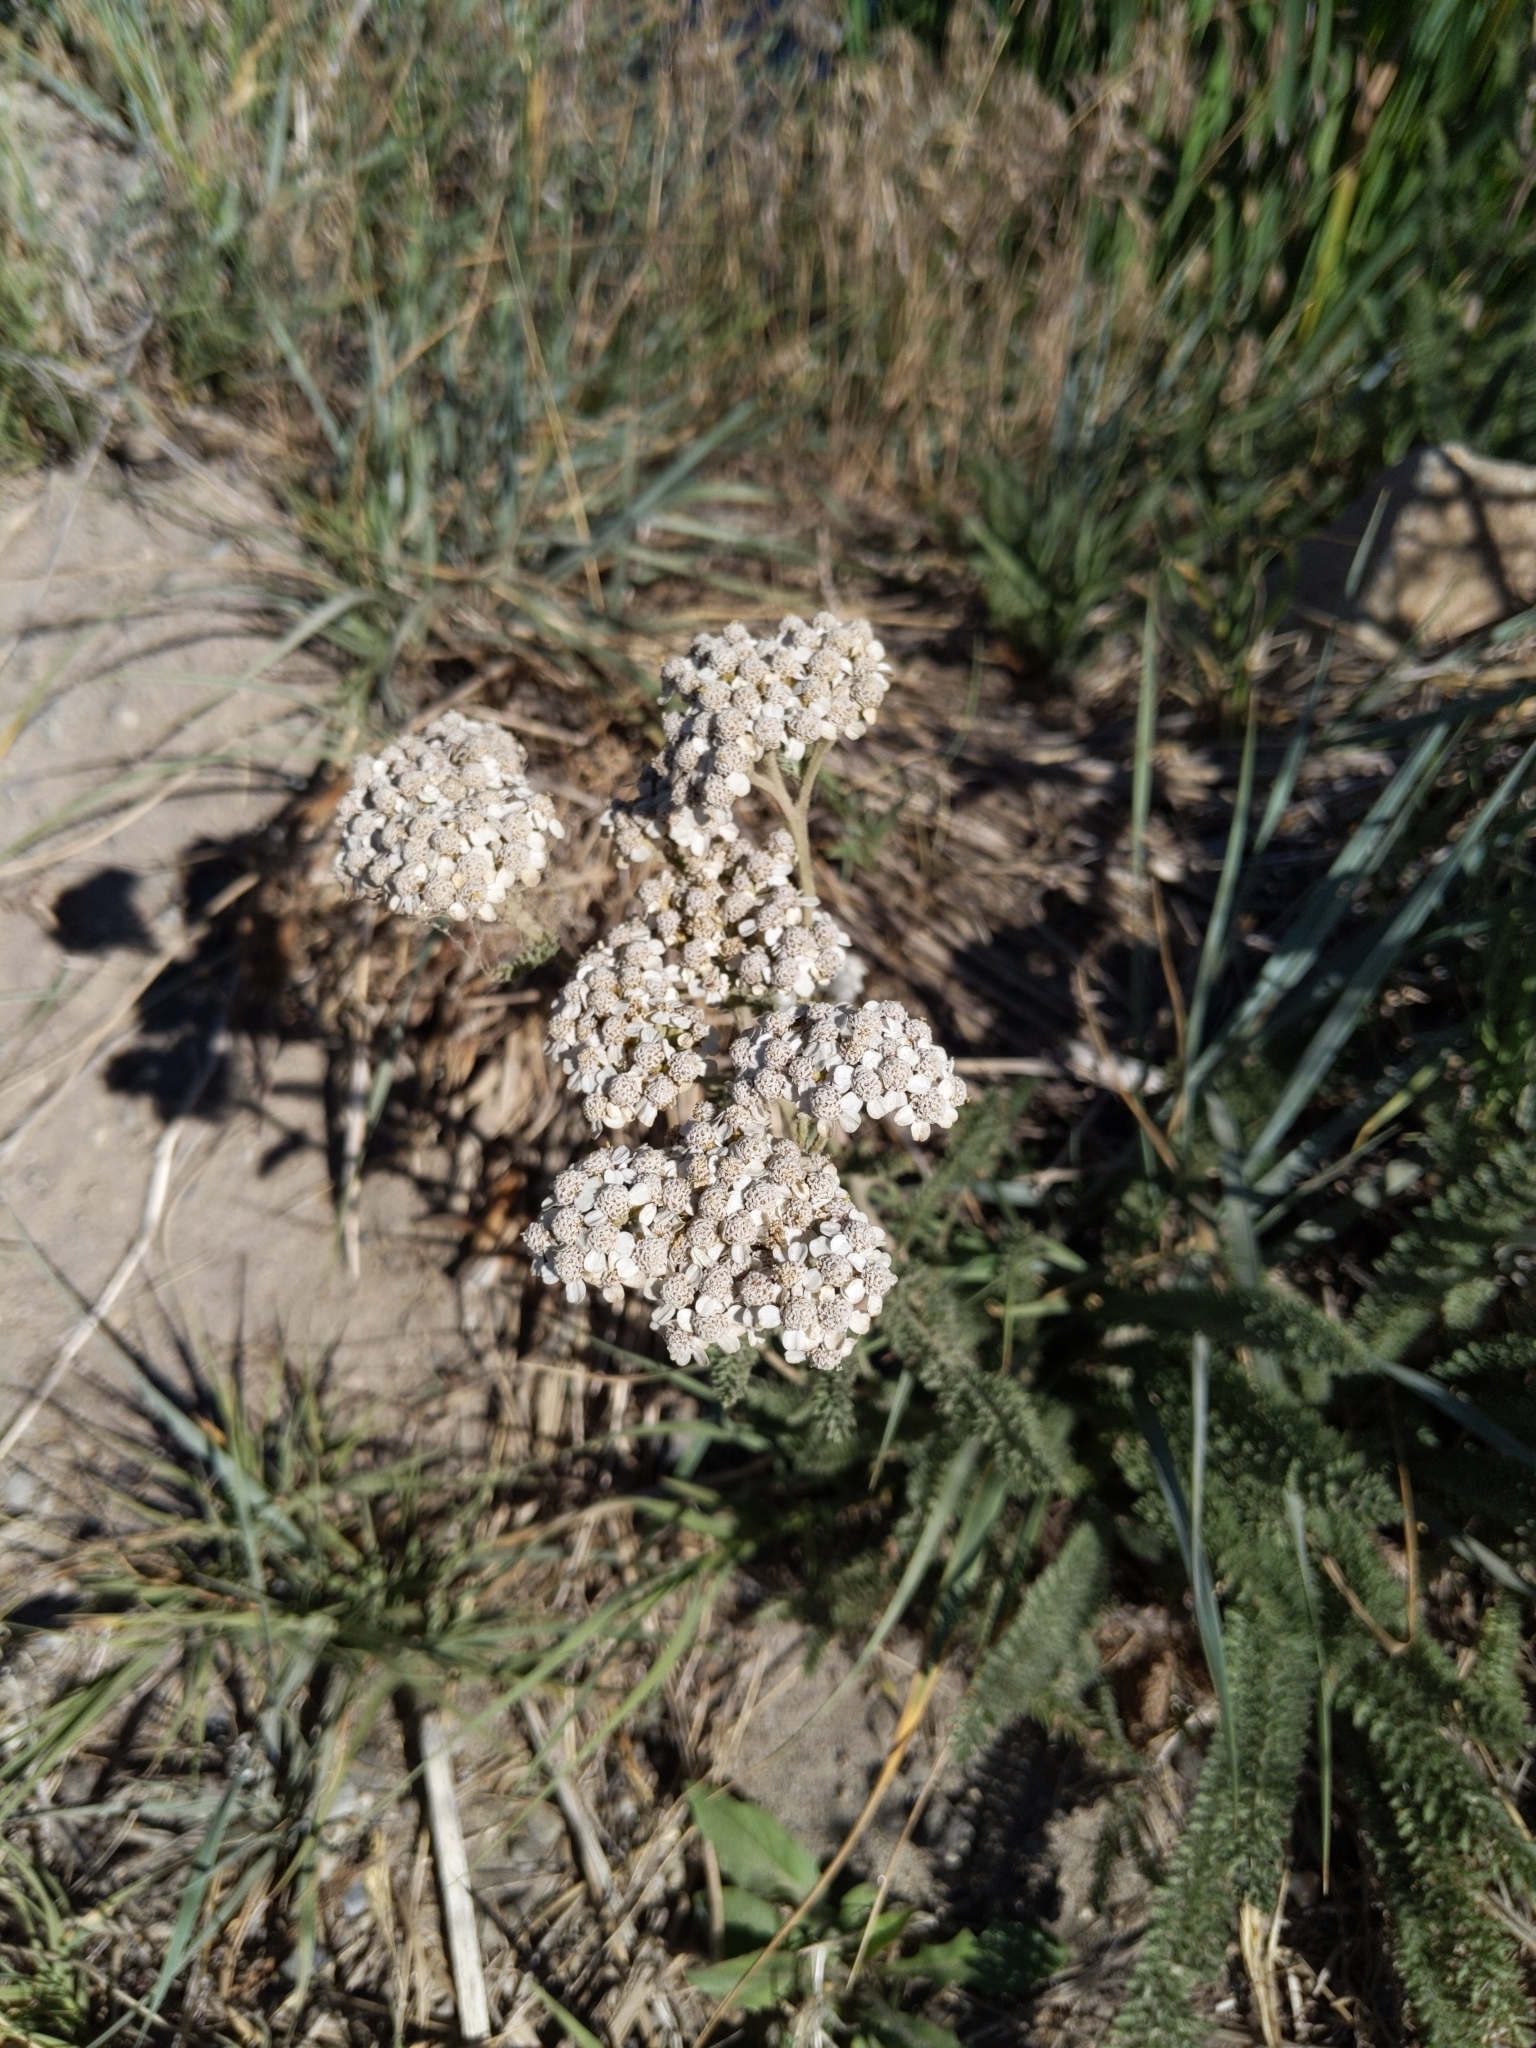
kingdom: Plantae
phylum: Tracheophyta
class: Magnoliopsida
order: Asterales
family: Asteraceae
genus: Achillea
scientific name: Achillea millefolium
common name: Yarrow
